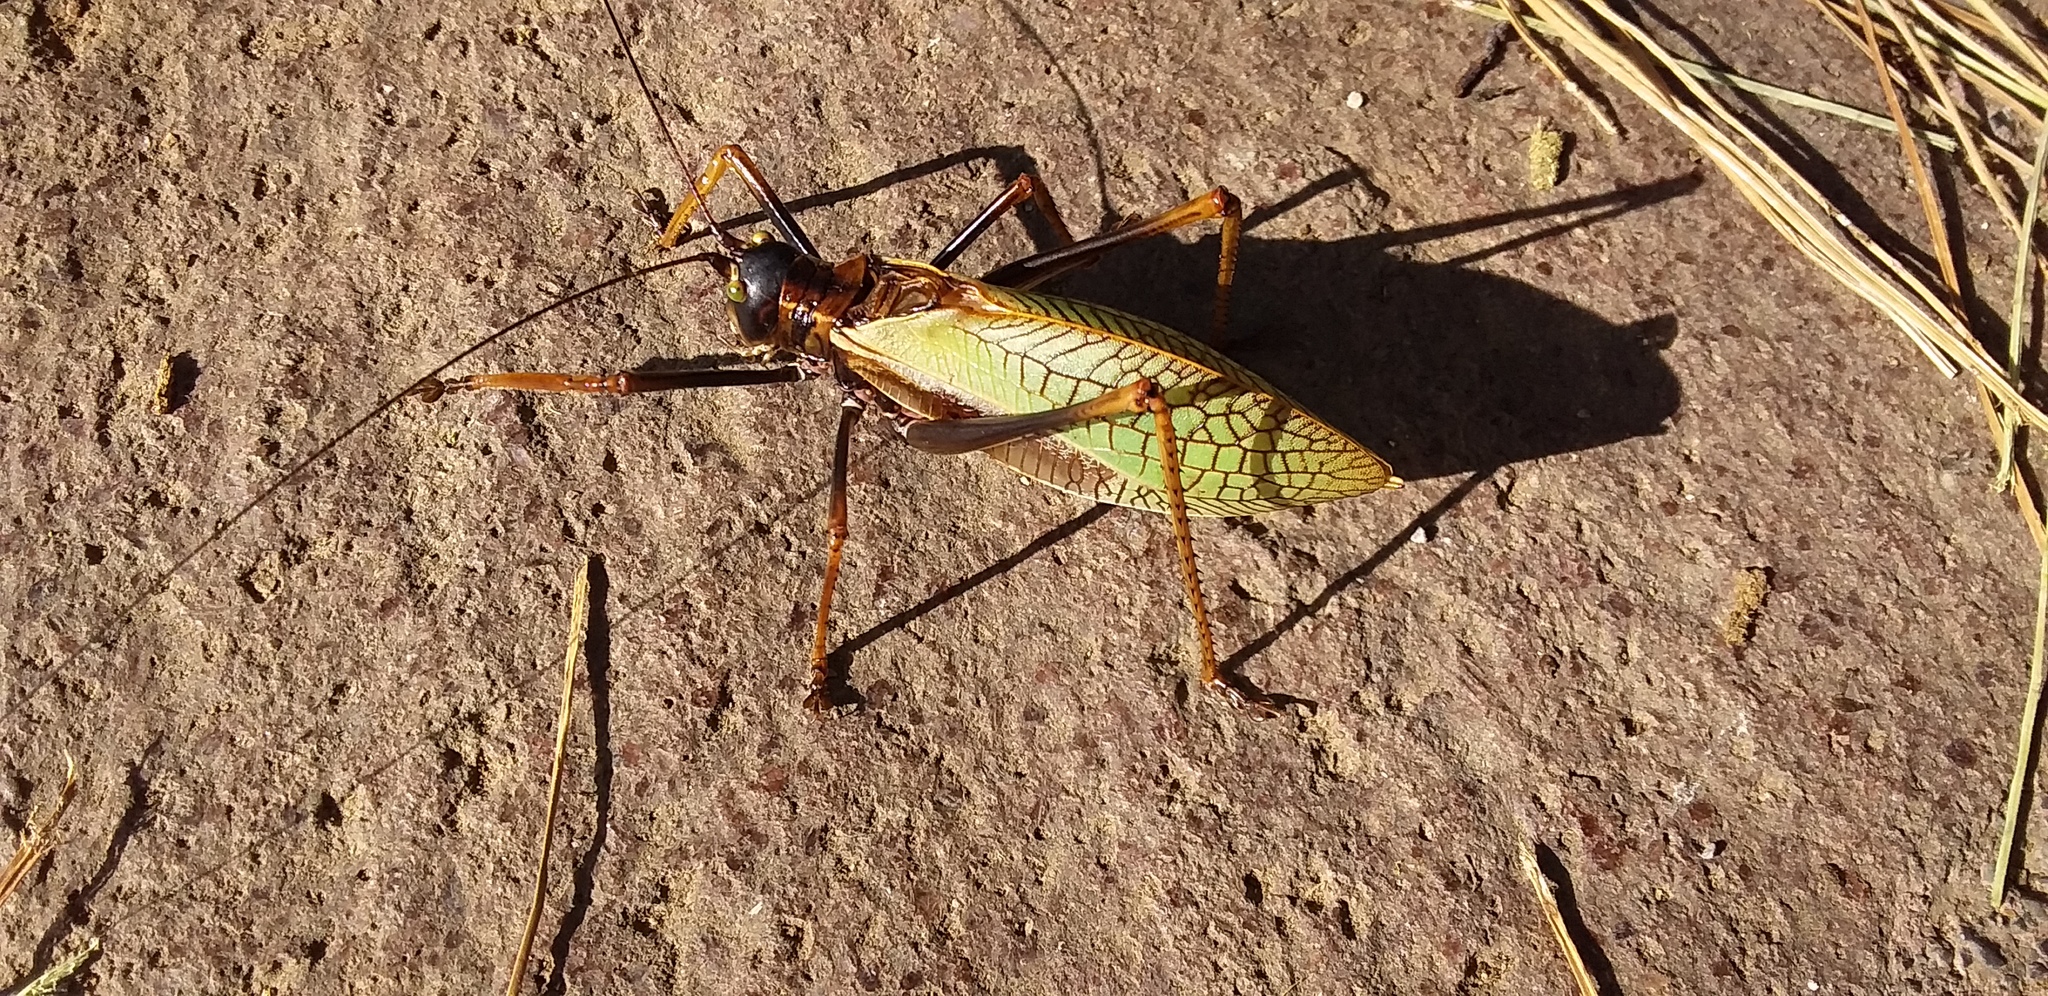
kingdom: Animalia
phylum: Arthropoda
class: Insecta
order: Orthoptera
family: Tettigoniidae
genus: Pterophylla
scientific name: Pterophylla beltrani
